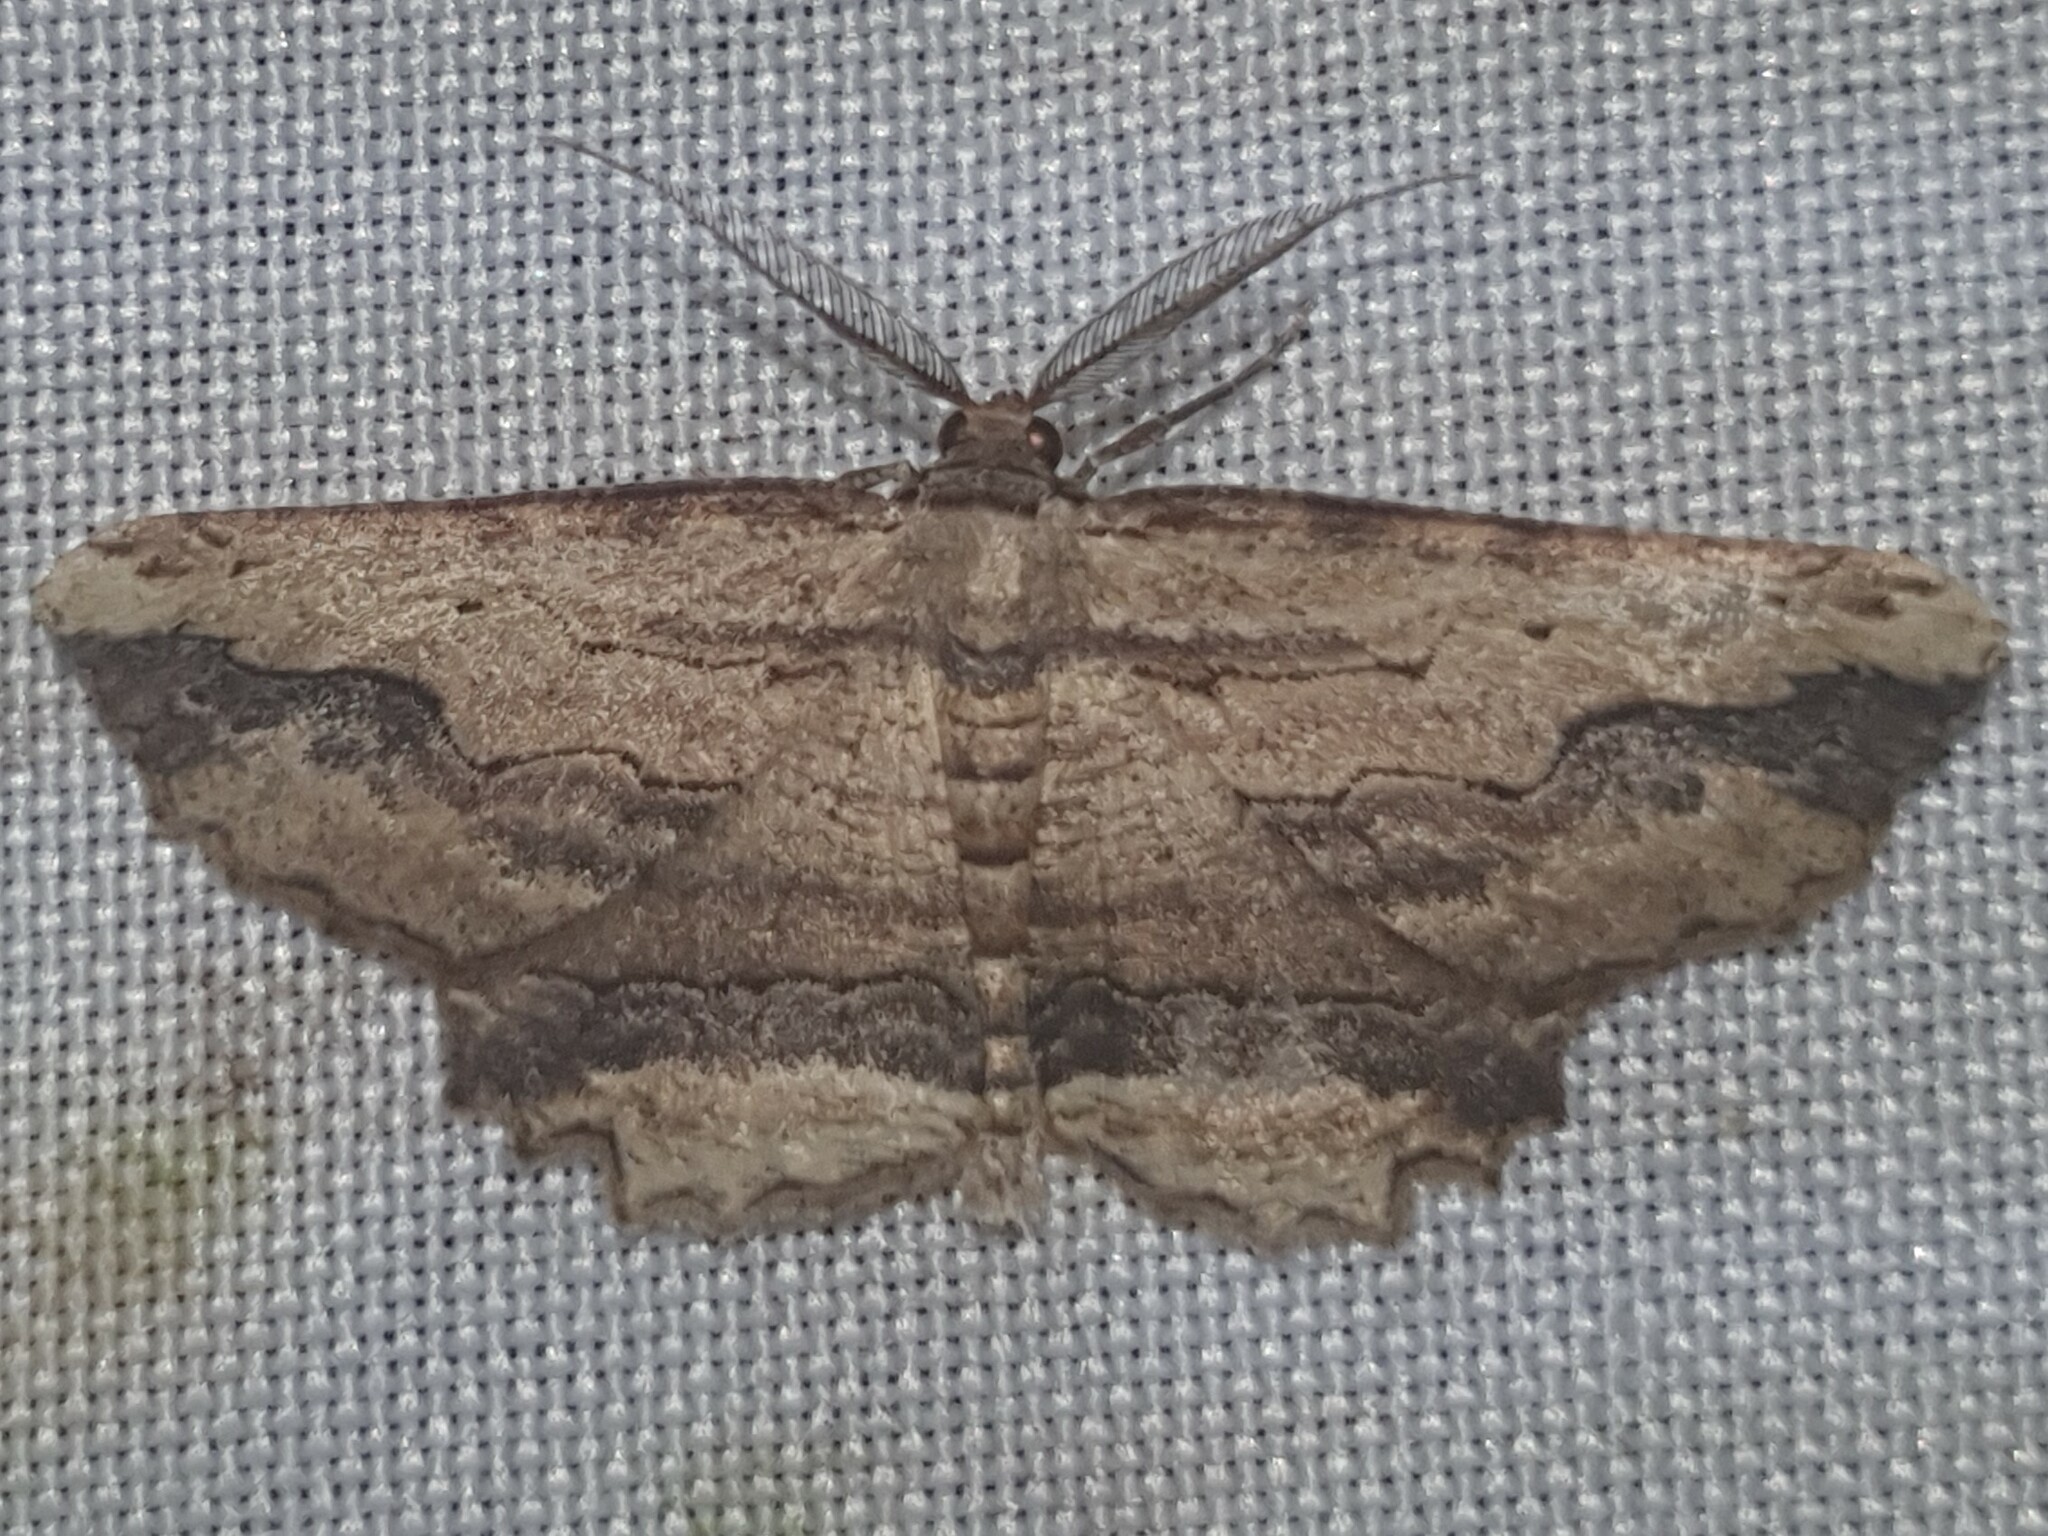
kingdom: Animalia
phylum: Arthropoda
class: Insecta
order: Lepidoptera
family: Geometridae
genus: Menophra
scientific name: Menophra abruptaria
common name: Waved umber
